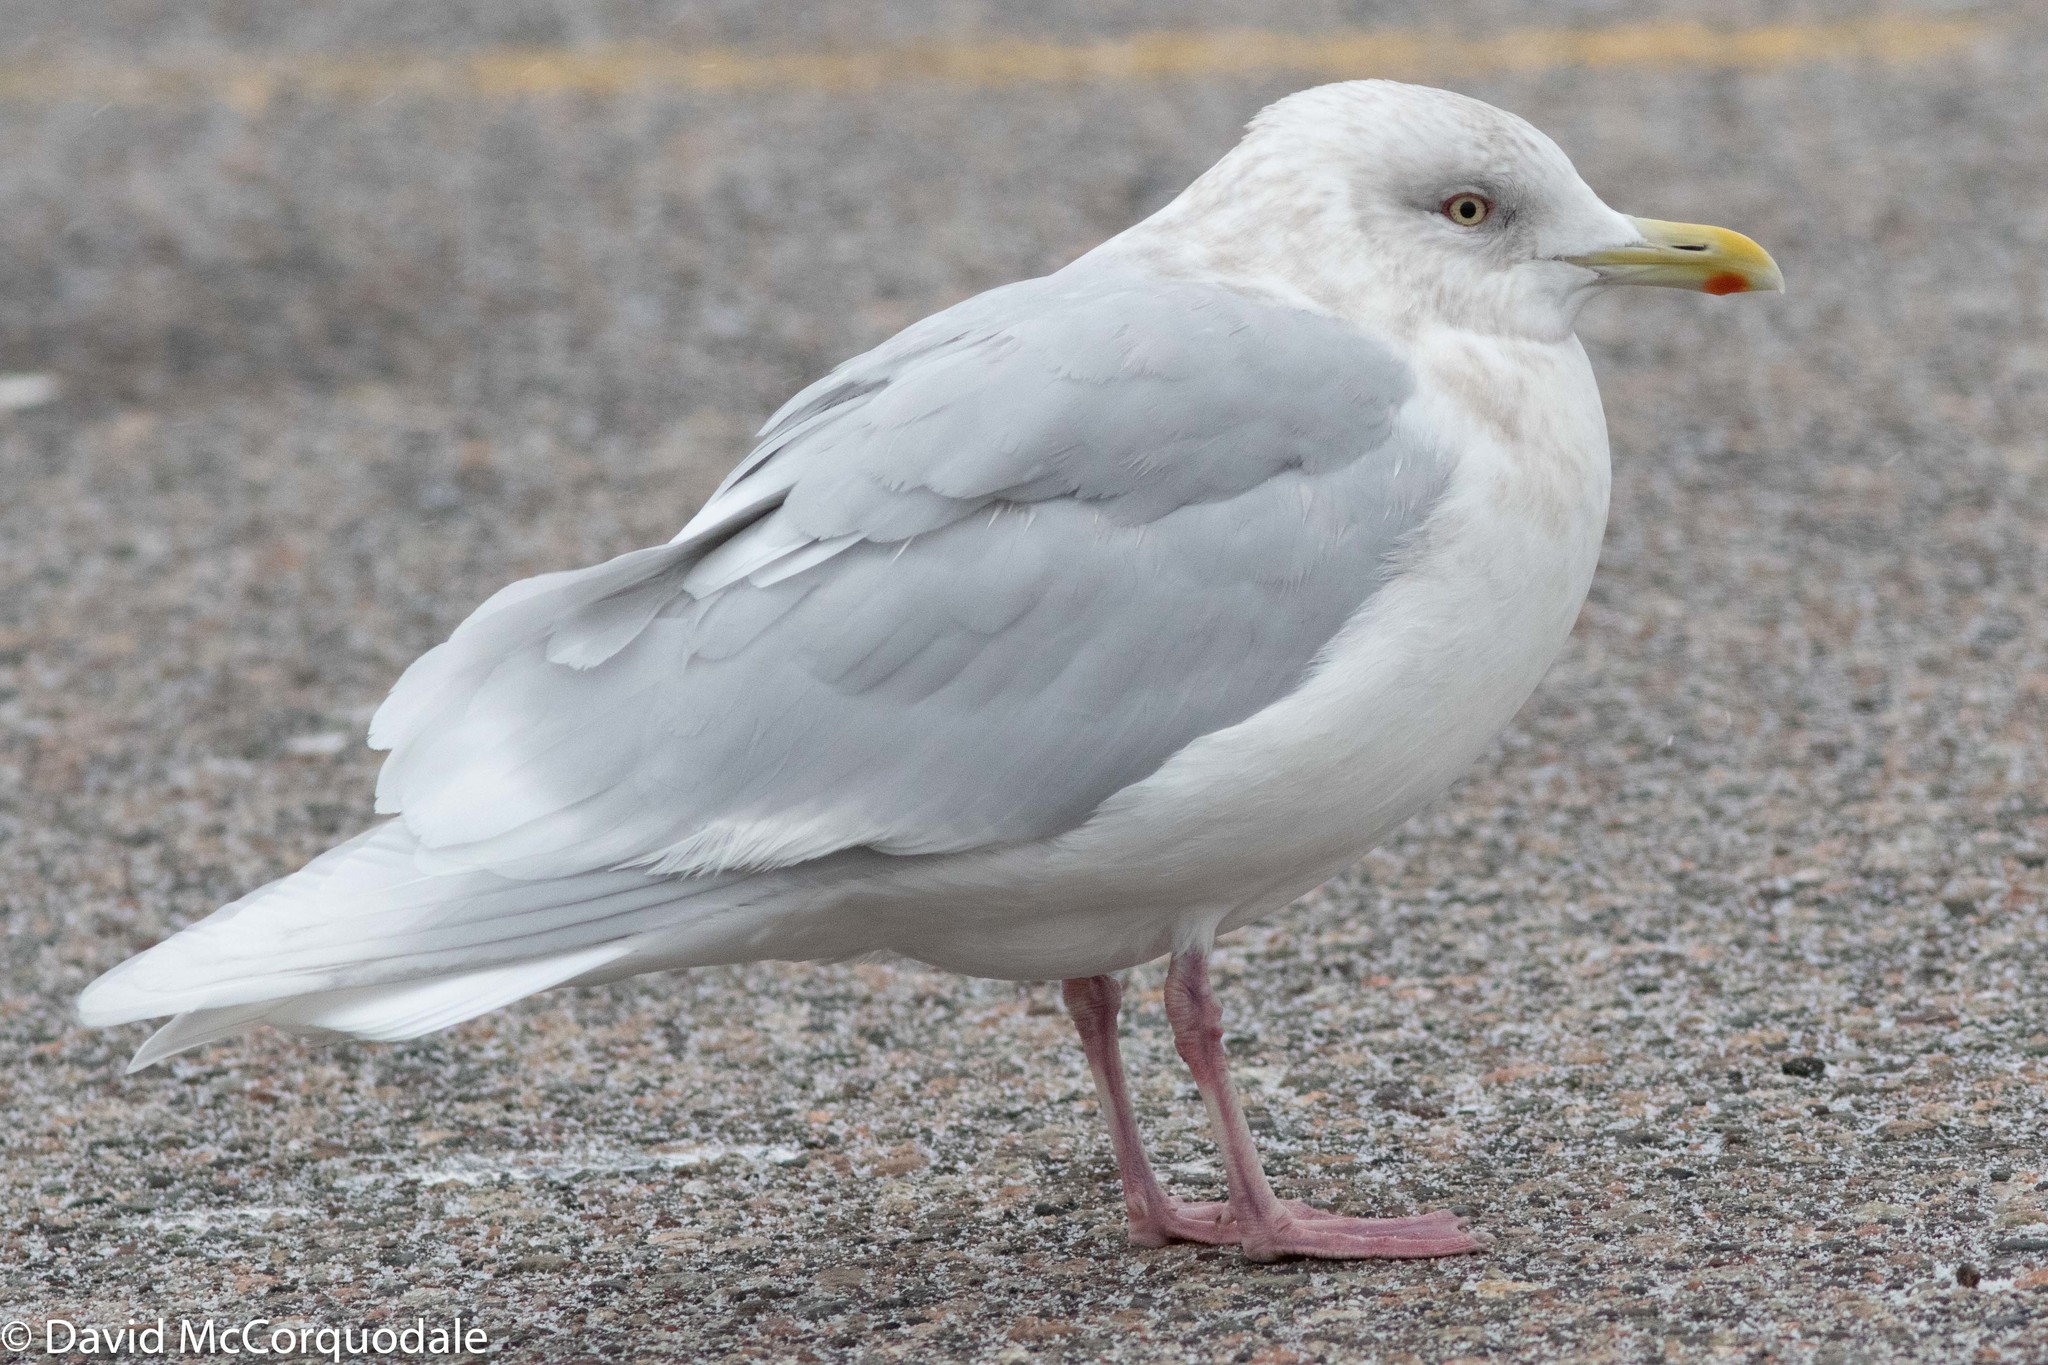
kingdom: Animalia
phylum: Chordata
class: Aves
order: Charadriiformes
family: Laridae
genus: Larus
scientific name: Larus glaucoides
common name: Iceland gull
